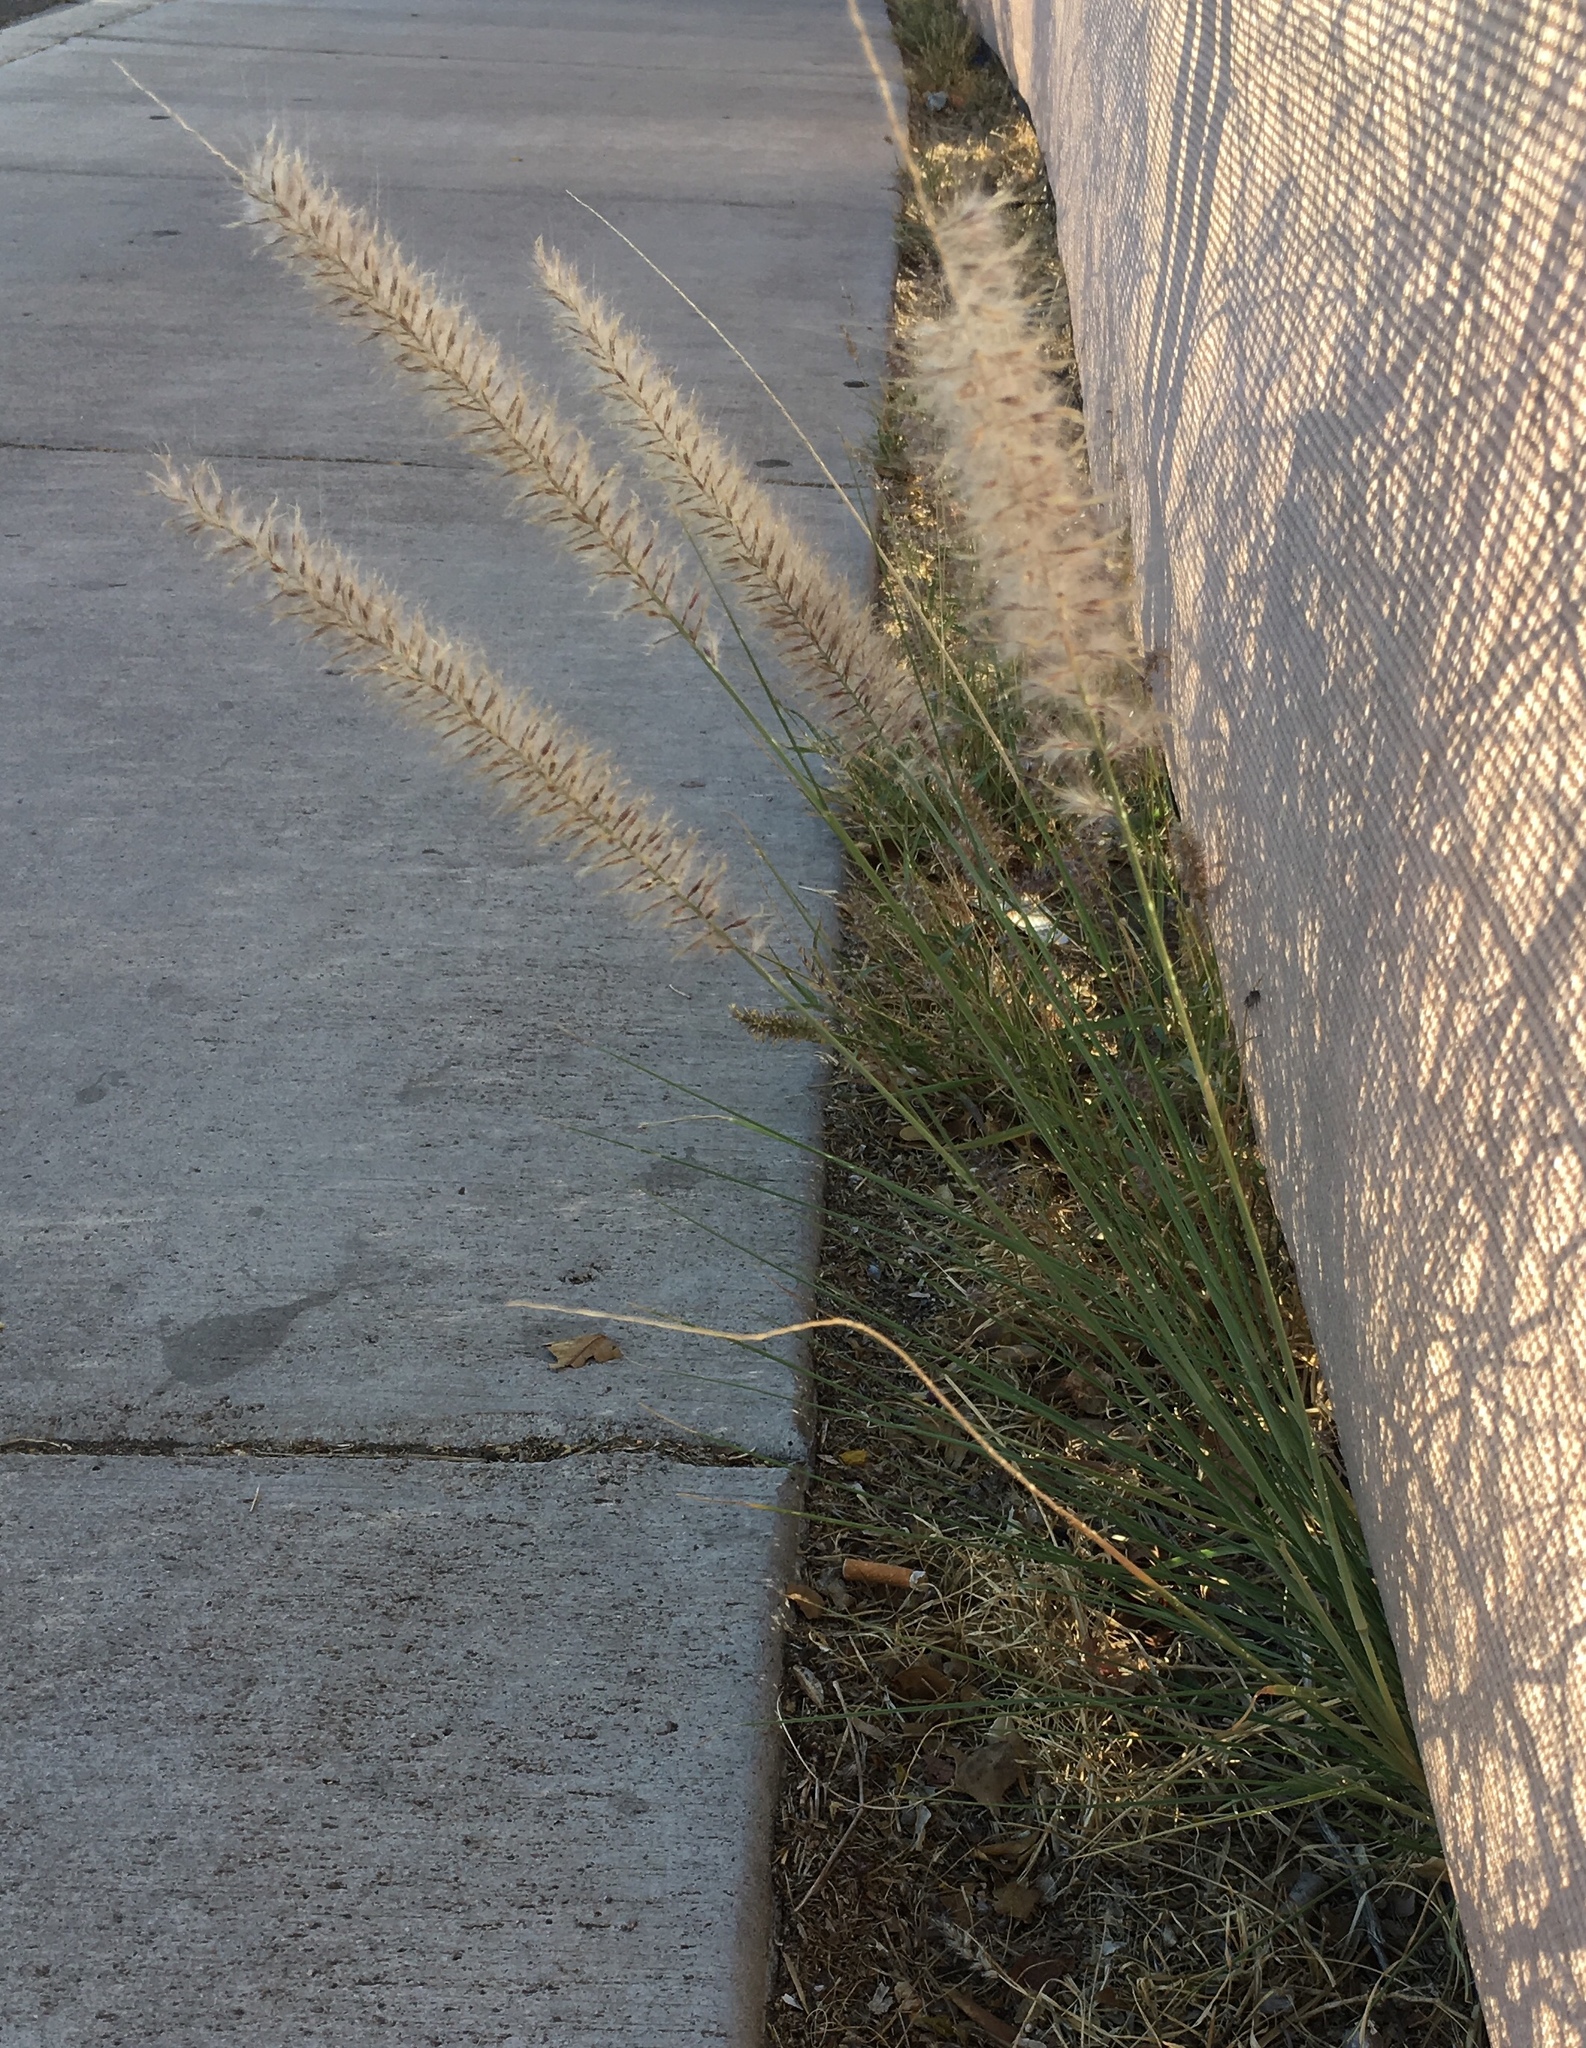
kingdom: Plantae
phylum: Tracheophyta
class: Liliopsida
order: Poales
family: Poaceae
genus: Cenchrus
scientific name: Cenchrus setaceus
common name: Crimson fountaingrass
